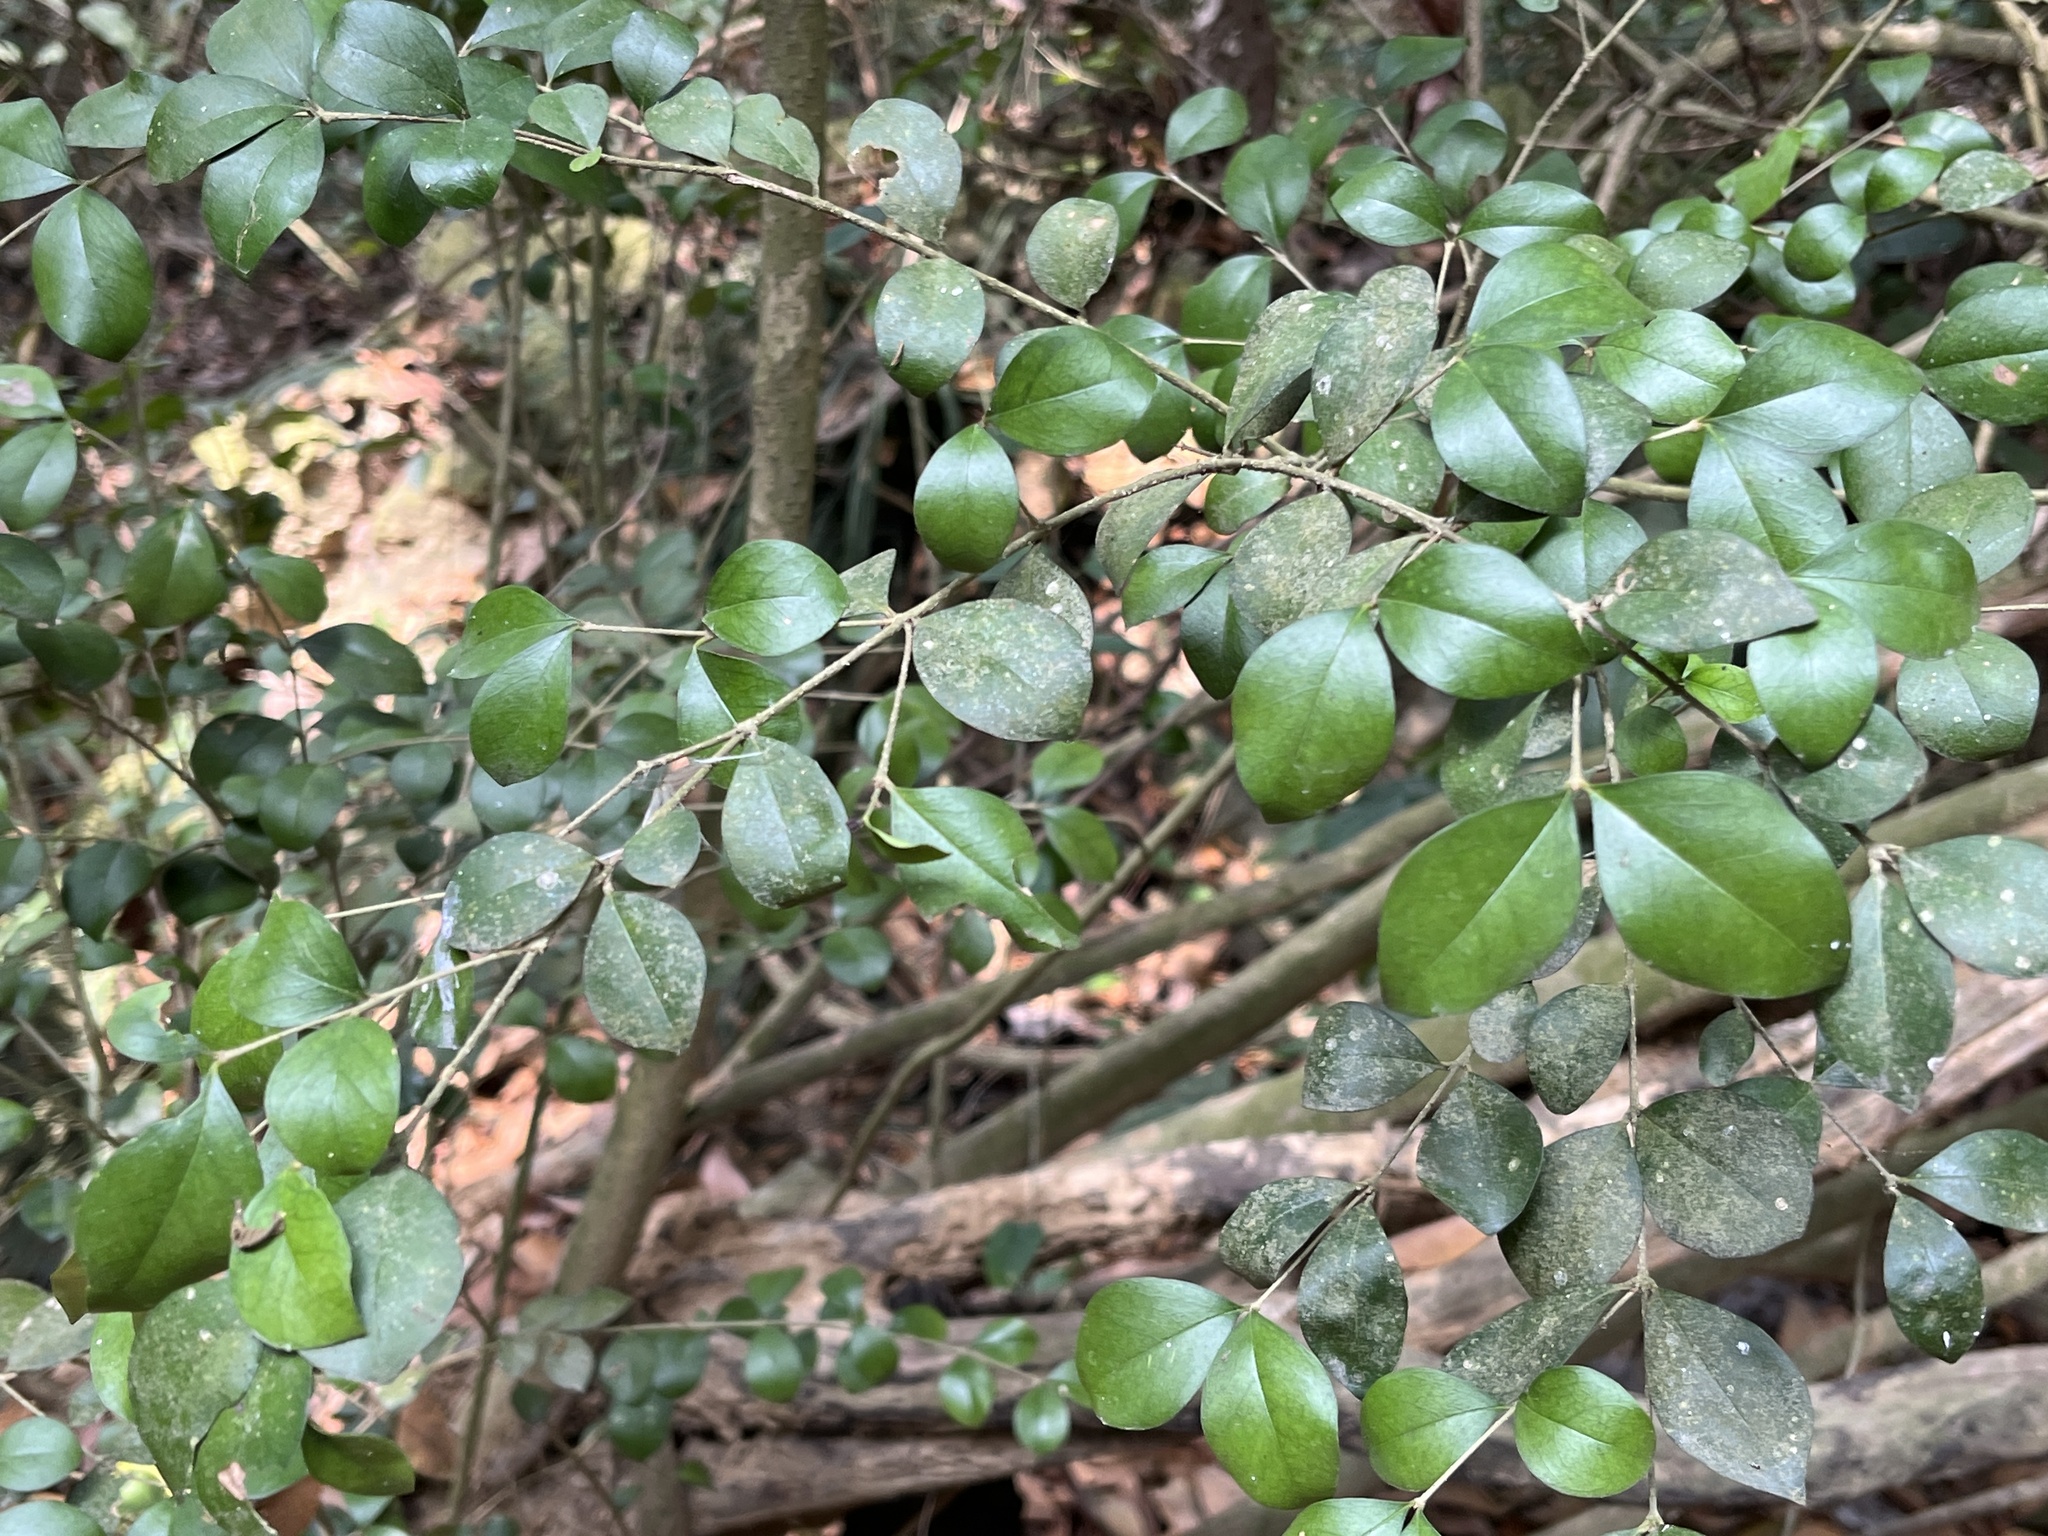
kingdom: Plantae
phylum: Tracheophyta
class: Magnoliopsida
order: Sapindales
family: Rutaceae
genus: Murraya
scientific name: Murraya paniculata
